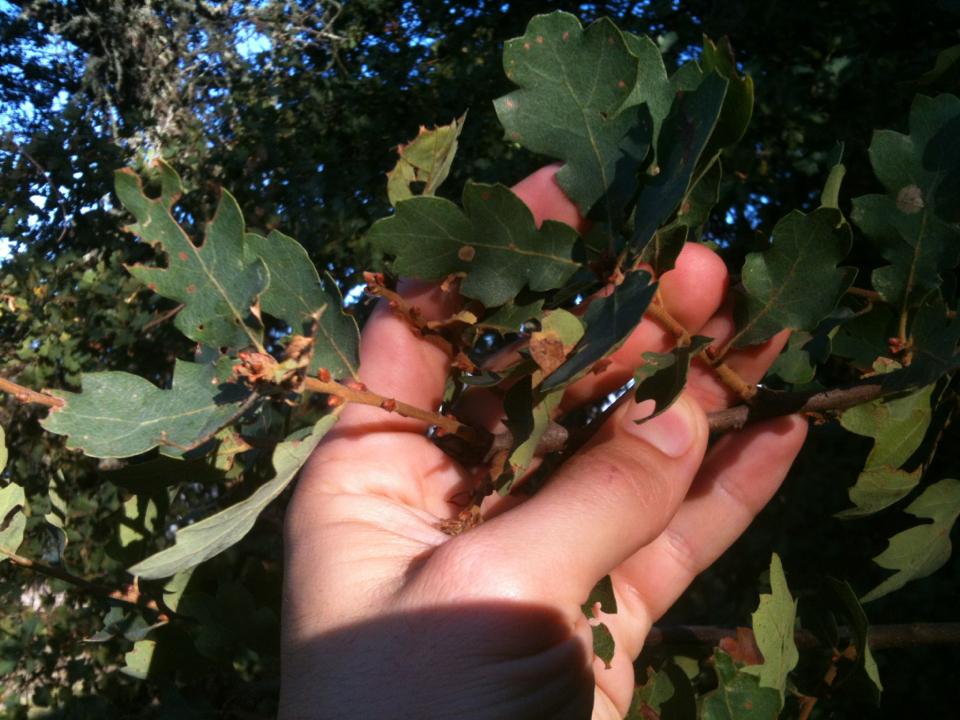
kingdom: Plantae
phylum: Tracheophyta
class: Magnoliopsida
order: Fagales
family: Fagaceae
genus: Quercus
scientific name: Quercus douglasii
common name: Blue oak
